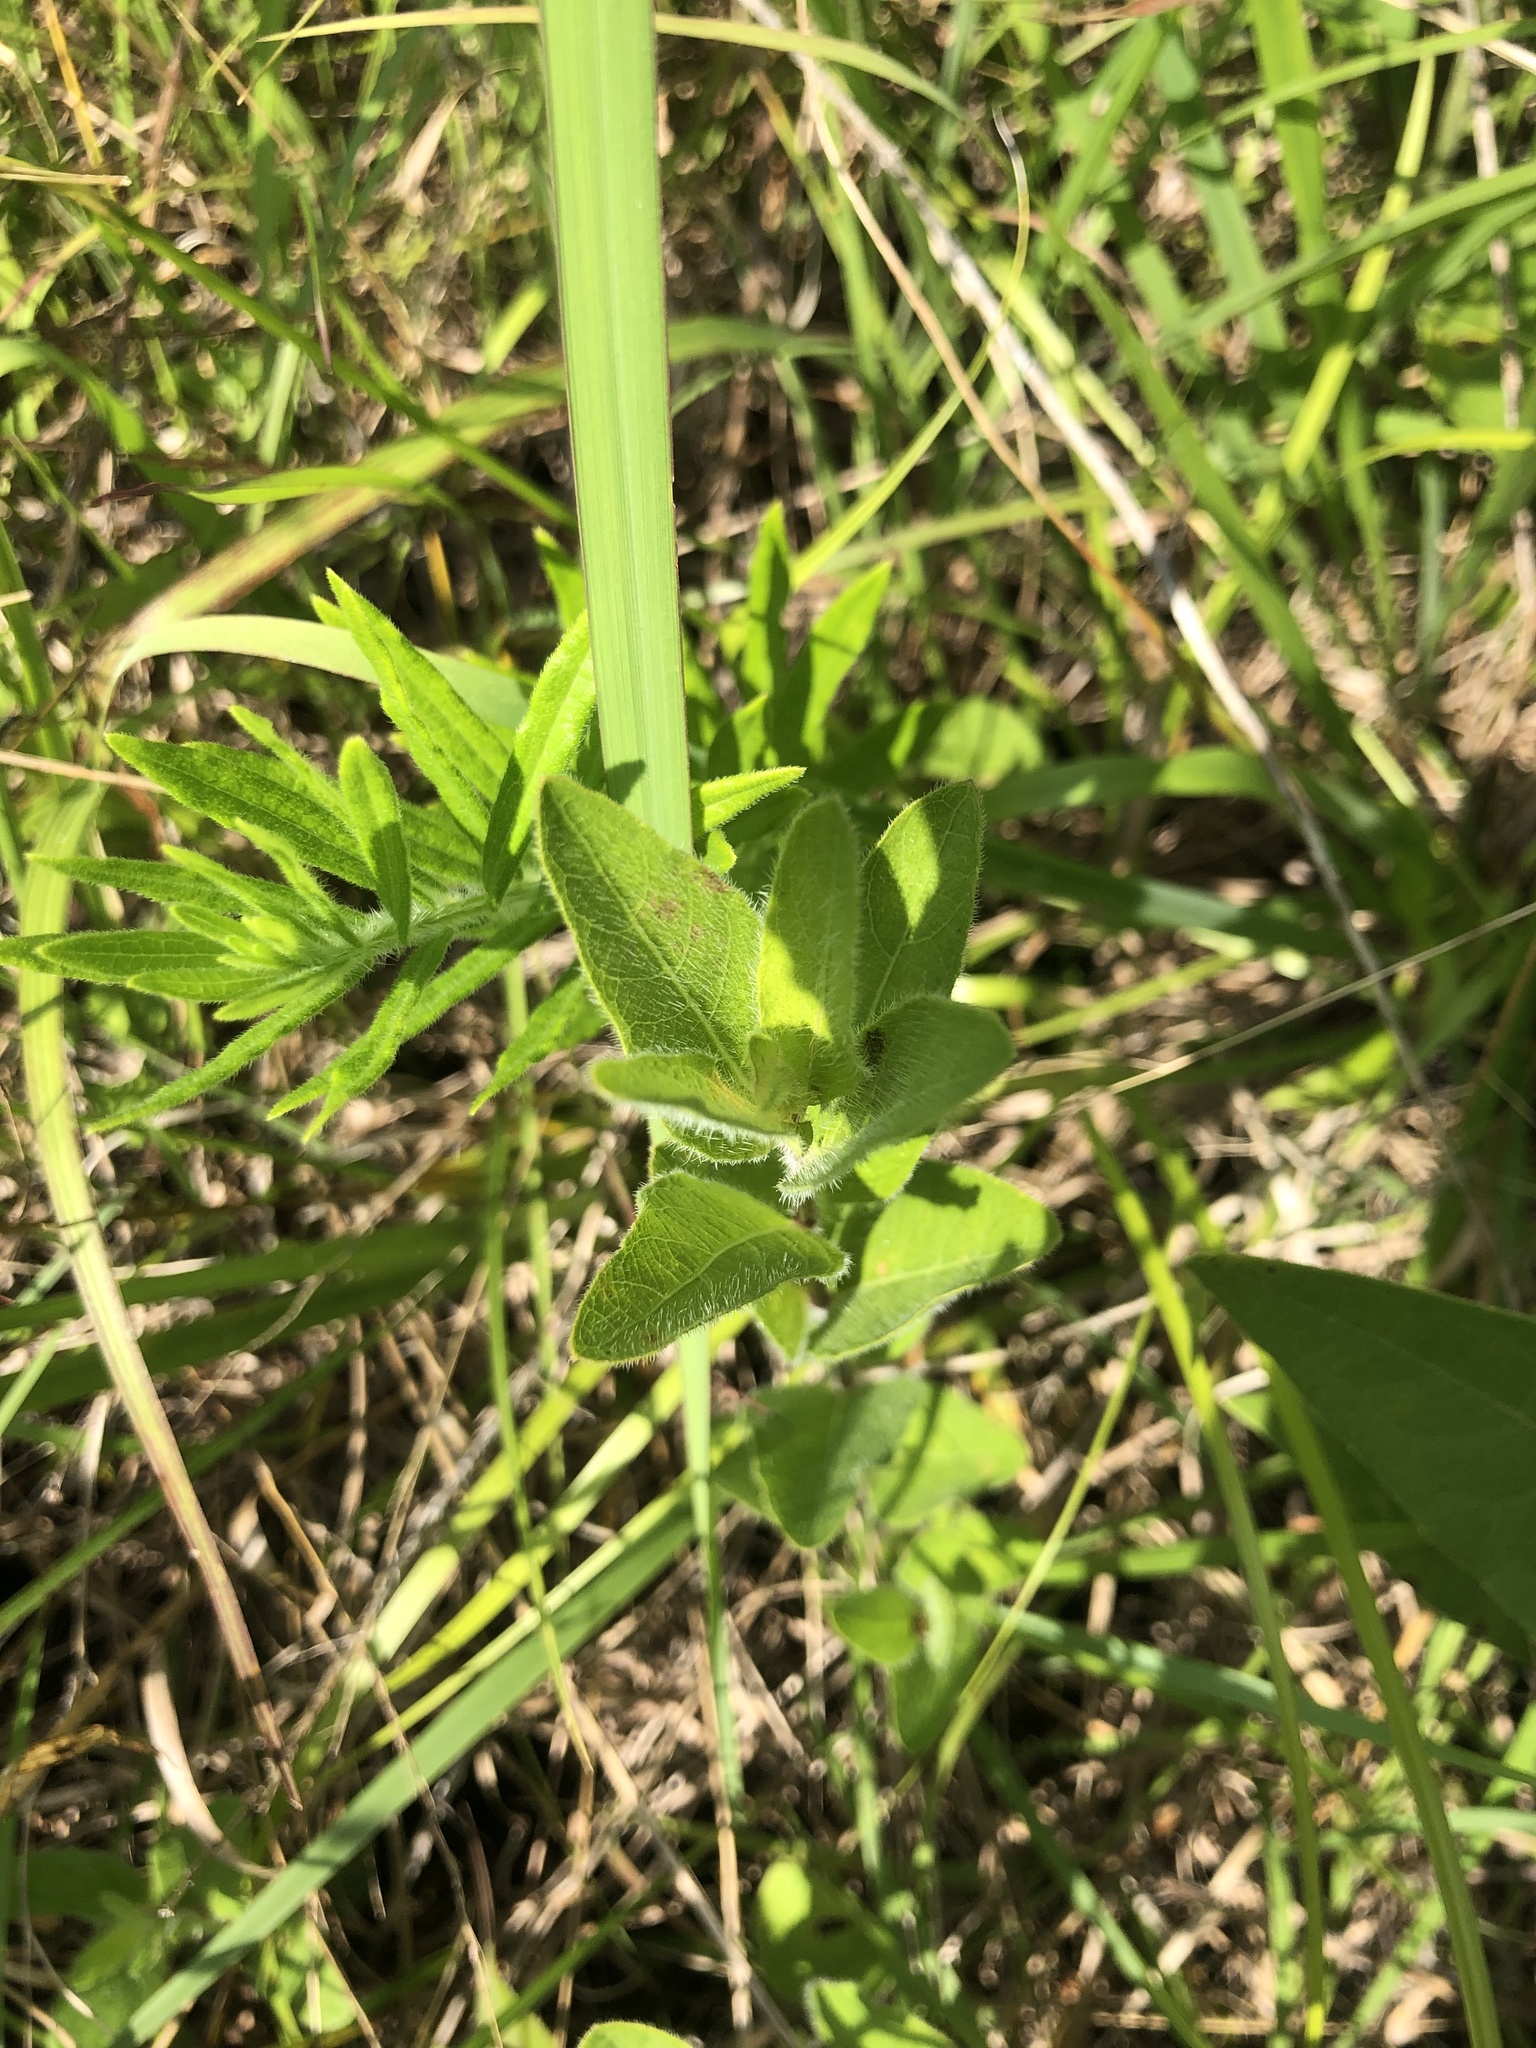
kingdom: Plantae
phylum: Tracheophyta
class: Magnoliopsida
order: Lamiales
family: Acanthaceae
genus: Ruellia
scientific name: Ruellia humilis
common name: Fringe-leaf ruellia
